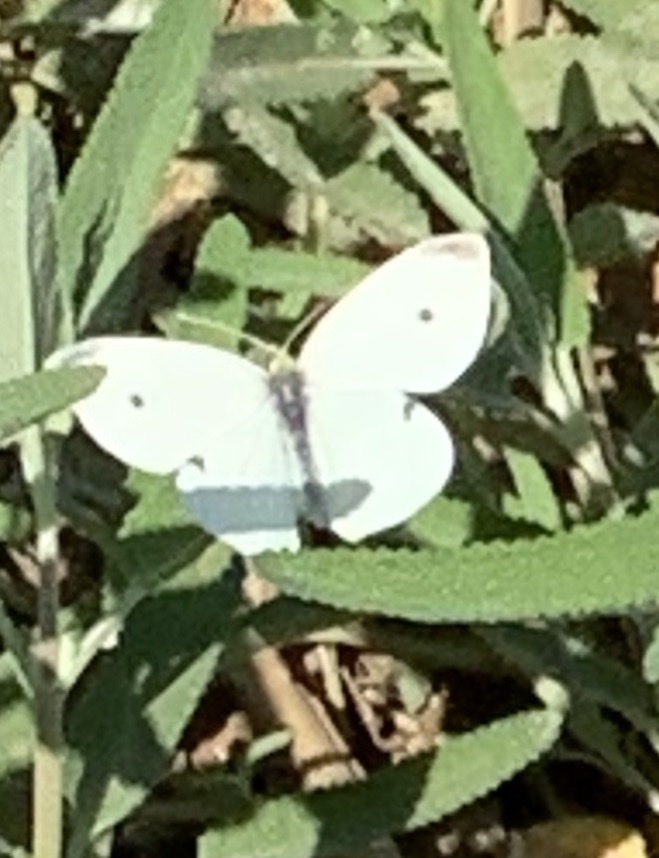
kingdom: Animalia
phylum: Arthropoda
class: Insecta
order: Lepidoptera
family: Pieridae
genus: Pieris
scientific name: Pieris rapae
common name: Small white
